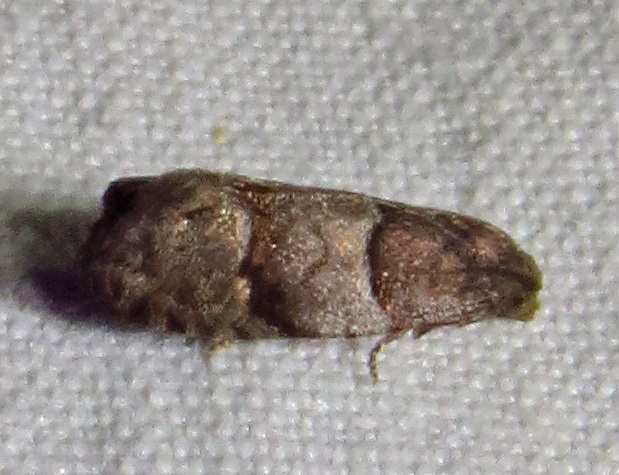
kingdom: Animalia
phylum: Arthropoda
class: Insecta
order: Lepidoptera
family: Tortricidae
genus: Larisa
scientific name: Larisa subsolana
